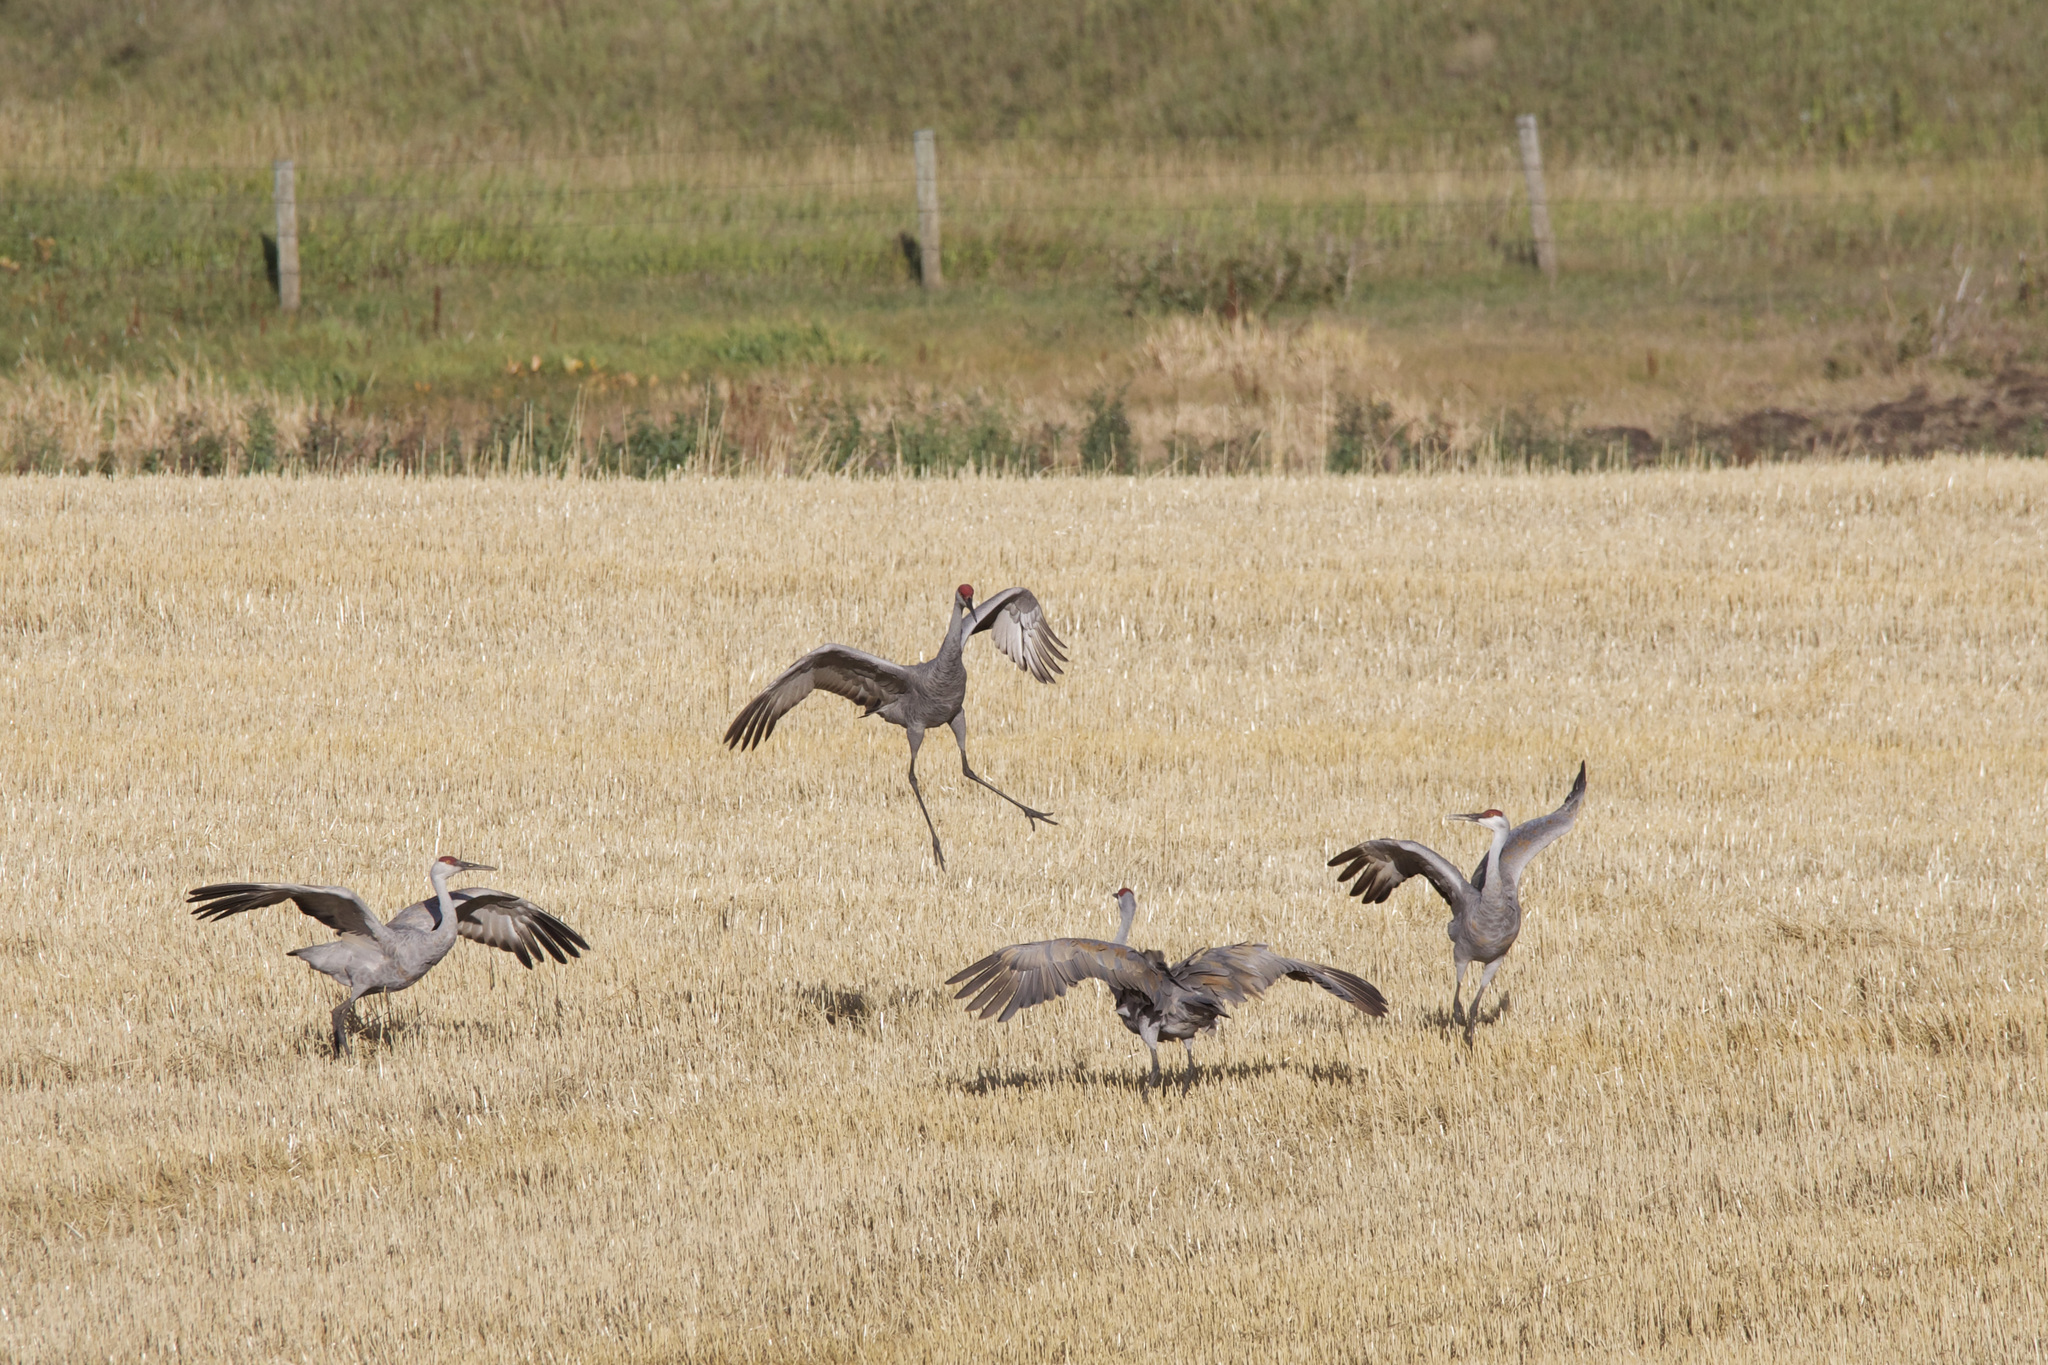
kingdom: Animalia
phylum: Chordata
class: Aves
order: Gruiformes
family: Gruidae
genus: Grus
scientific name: Grus canadensis
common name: Sandhill crane
